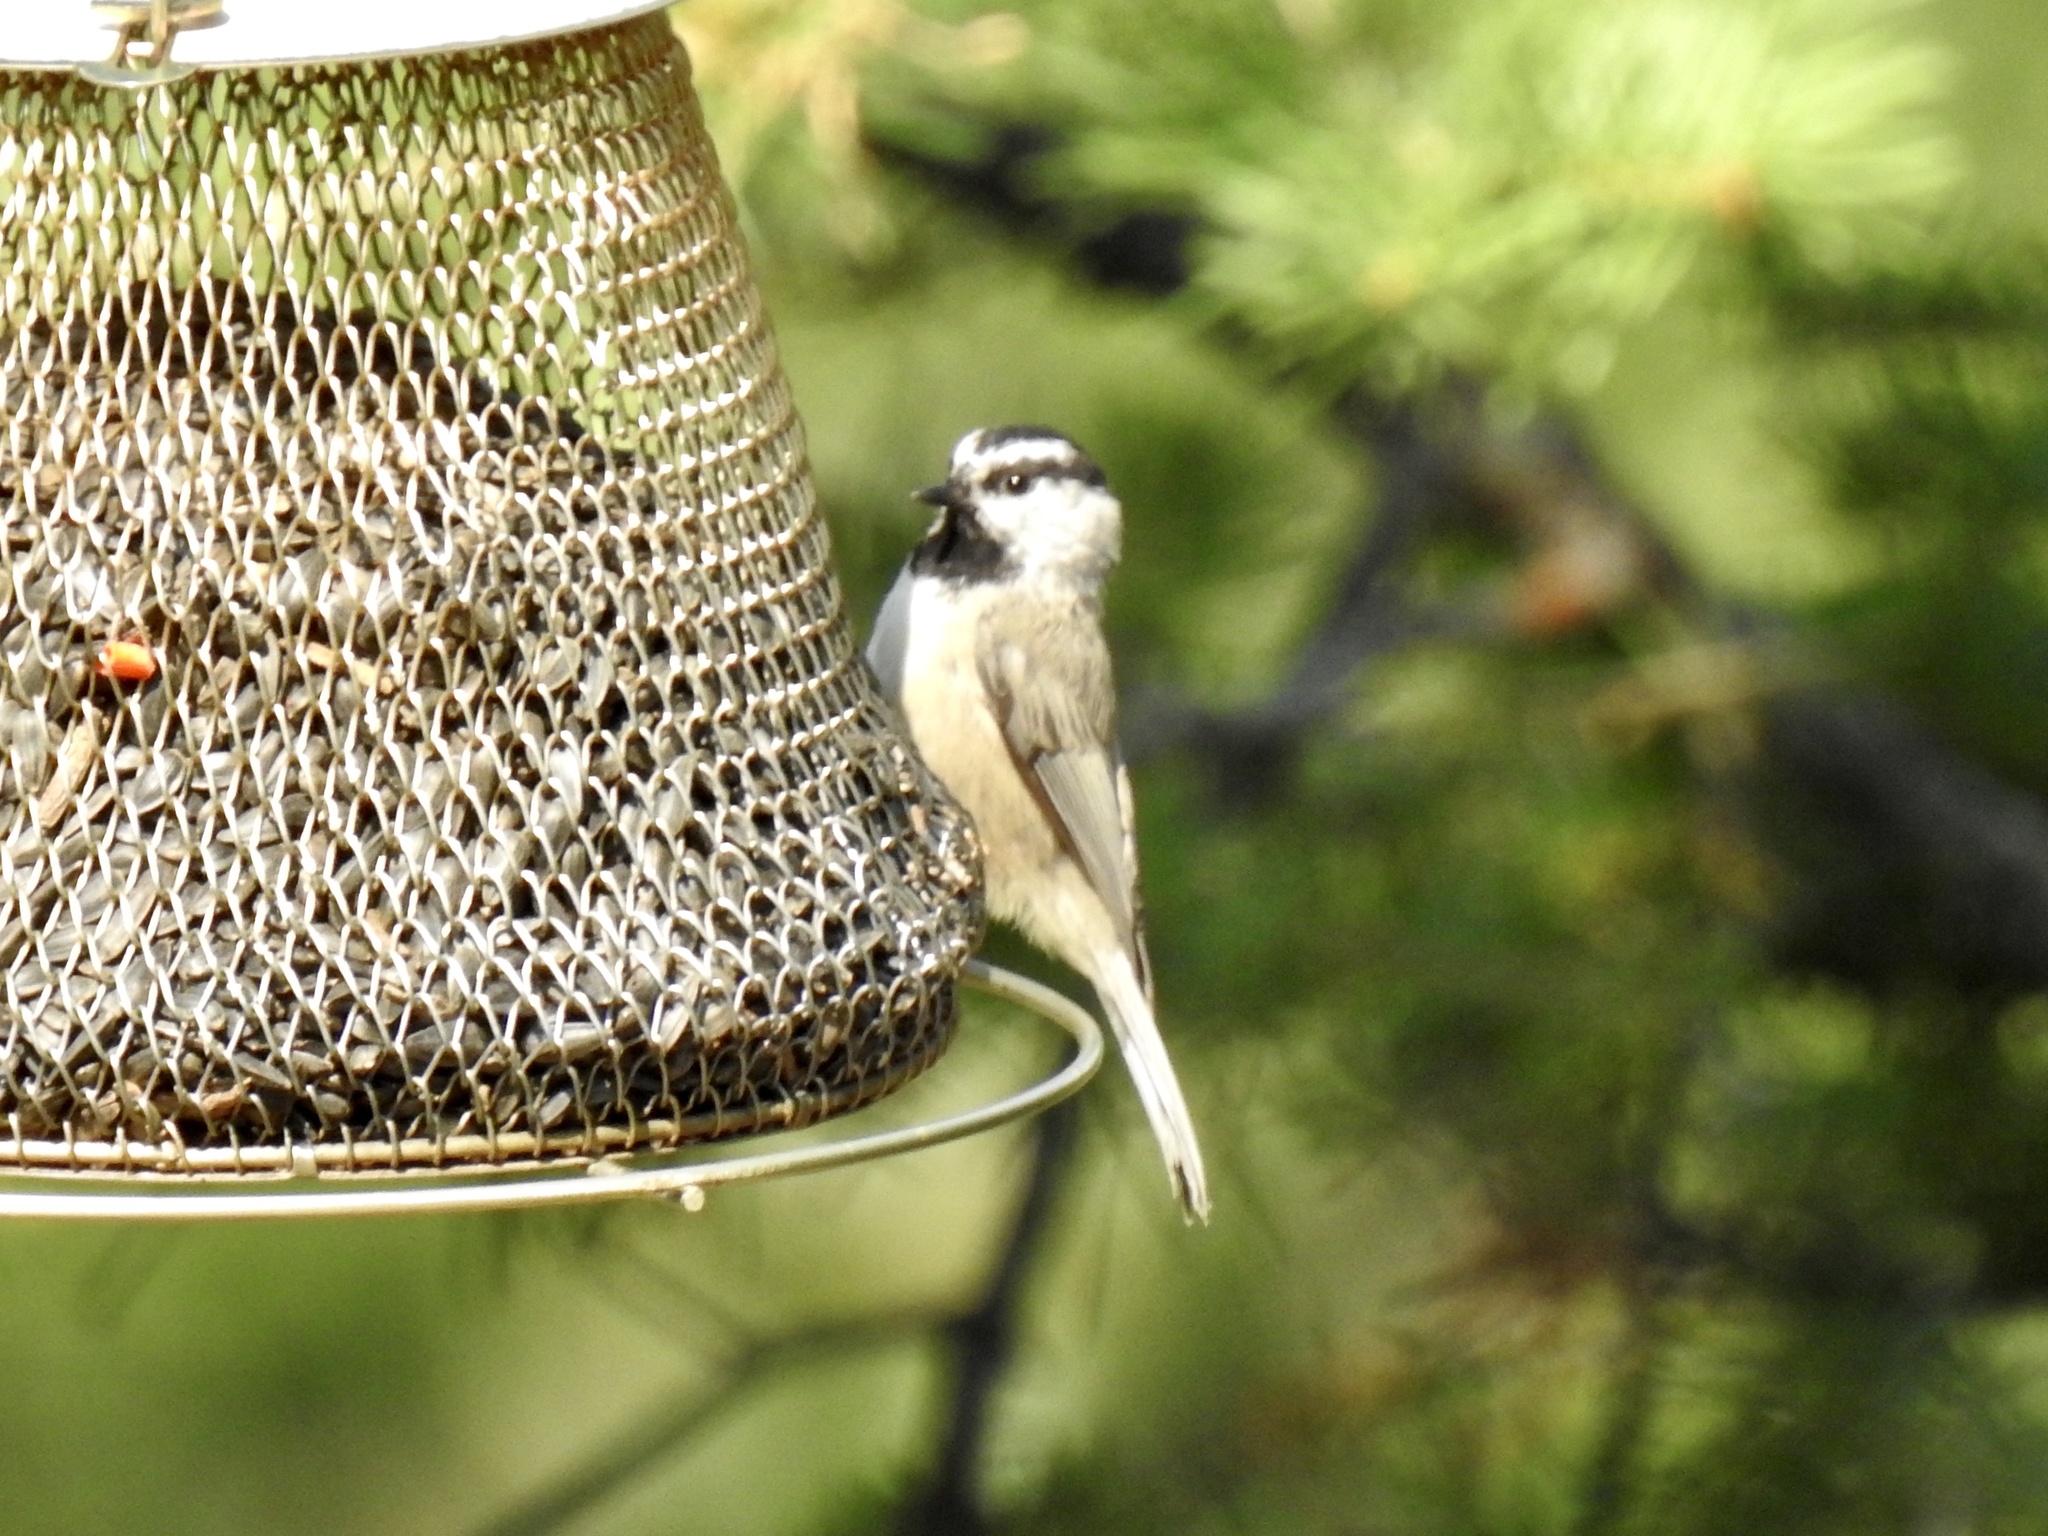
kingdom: Animalia
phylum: Chordata
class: Aves
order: Passeriformes
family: Paridae
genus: Poecile
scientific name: Poecile gambeli
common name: Mountain chickadee
